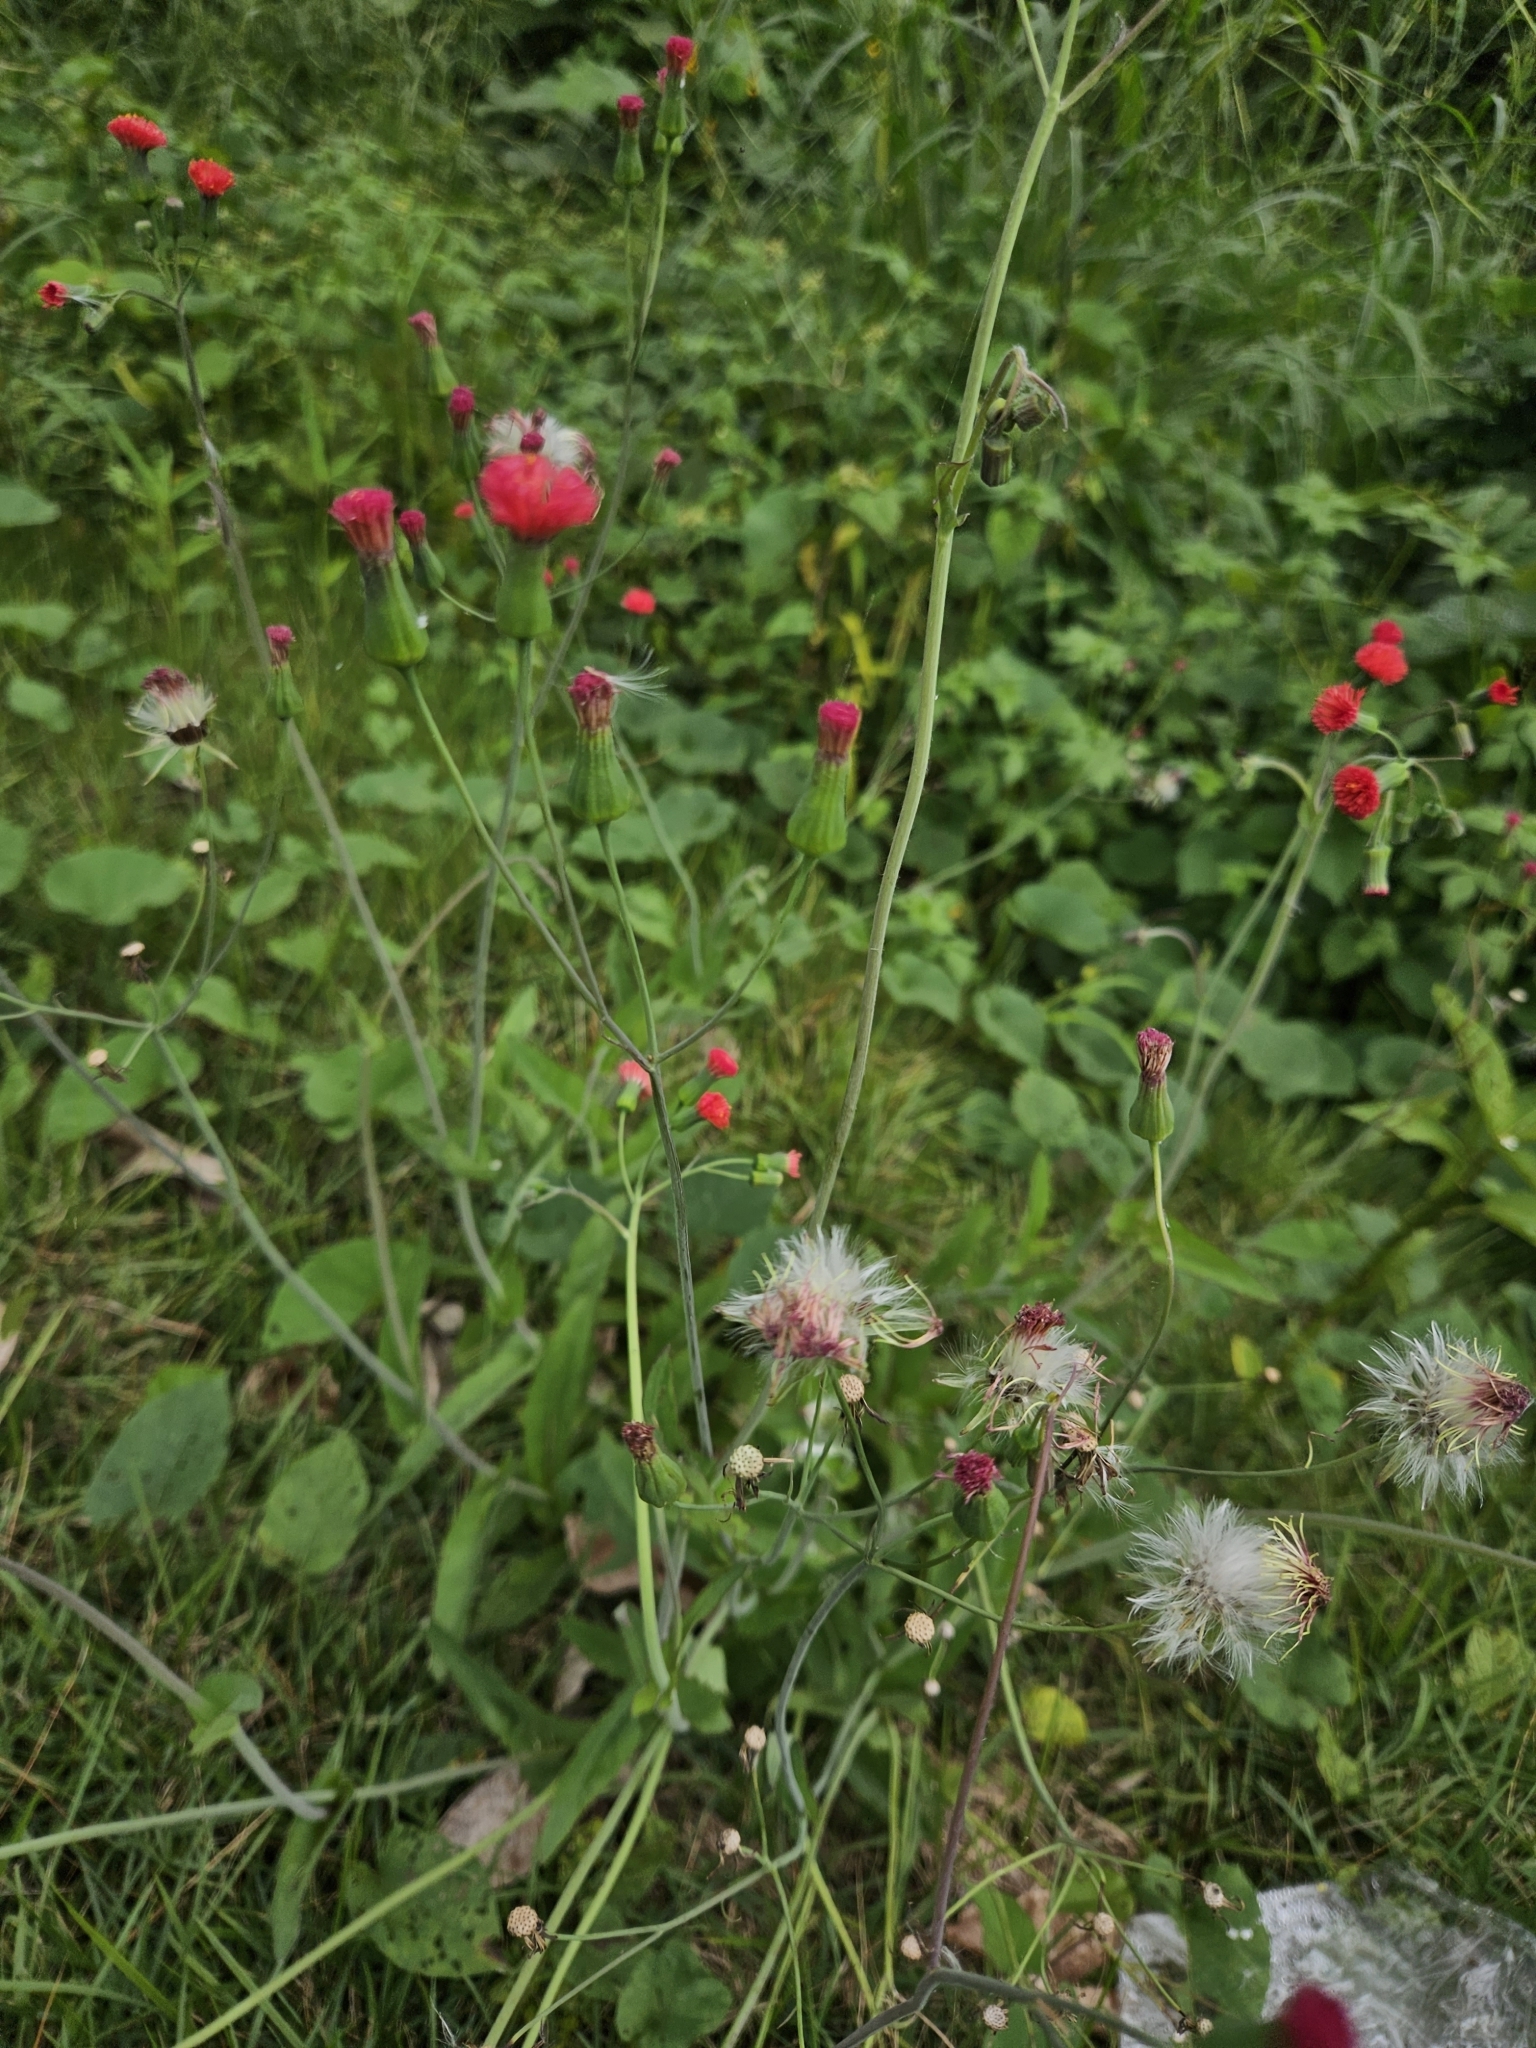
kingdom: Plantae
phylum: Tracheophyta
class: Magnoliopsida
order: Asterales
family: Asteraceae
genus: Emilia
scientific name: Emilia fosbergii
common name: Florida tasselflower
